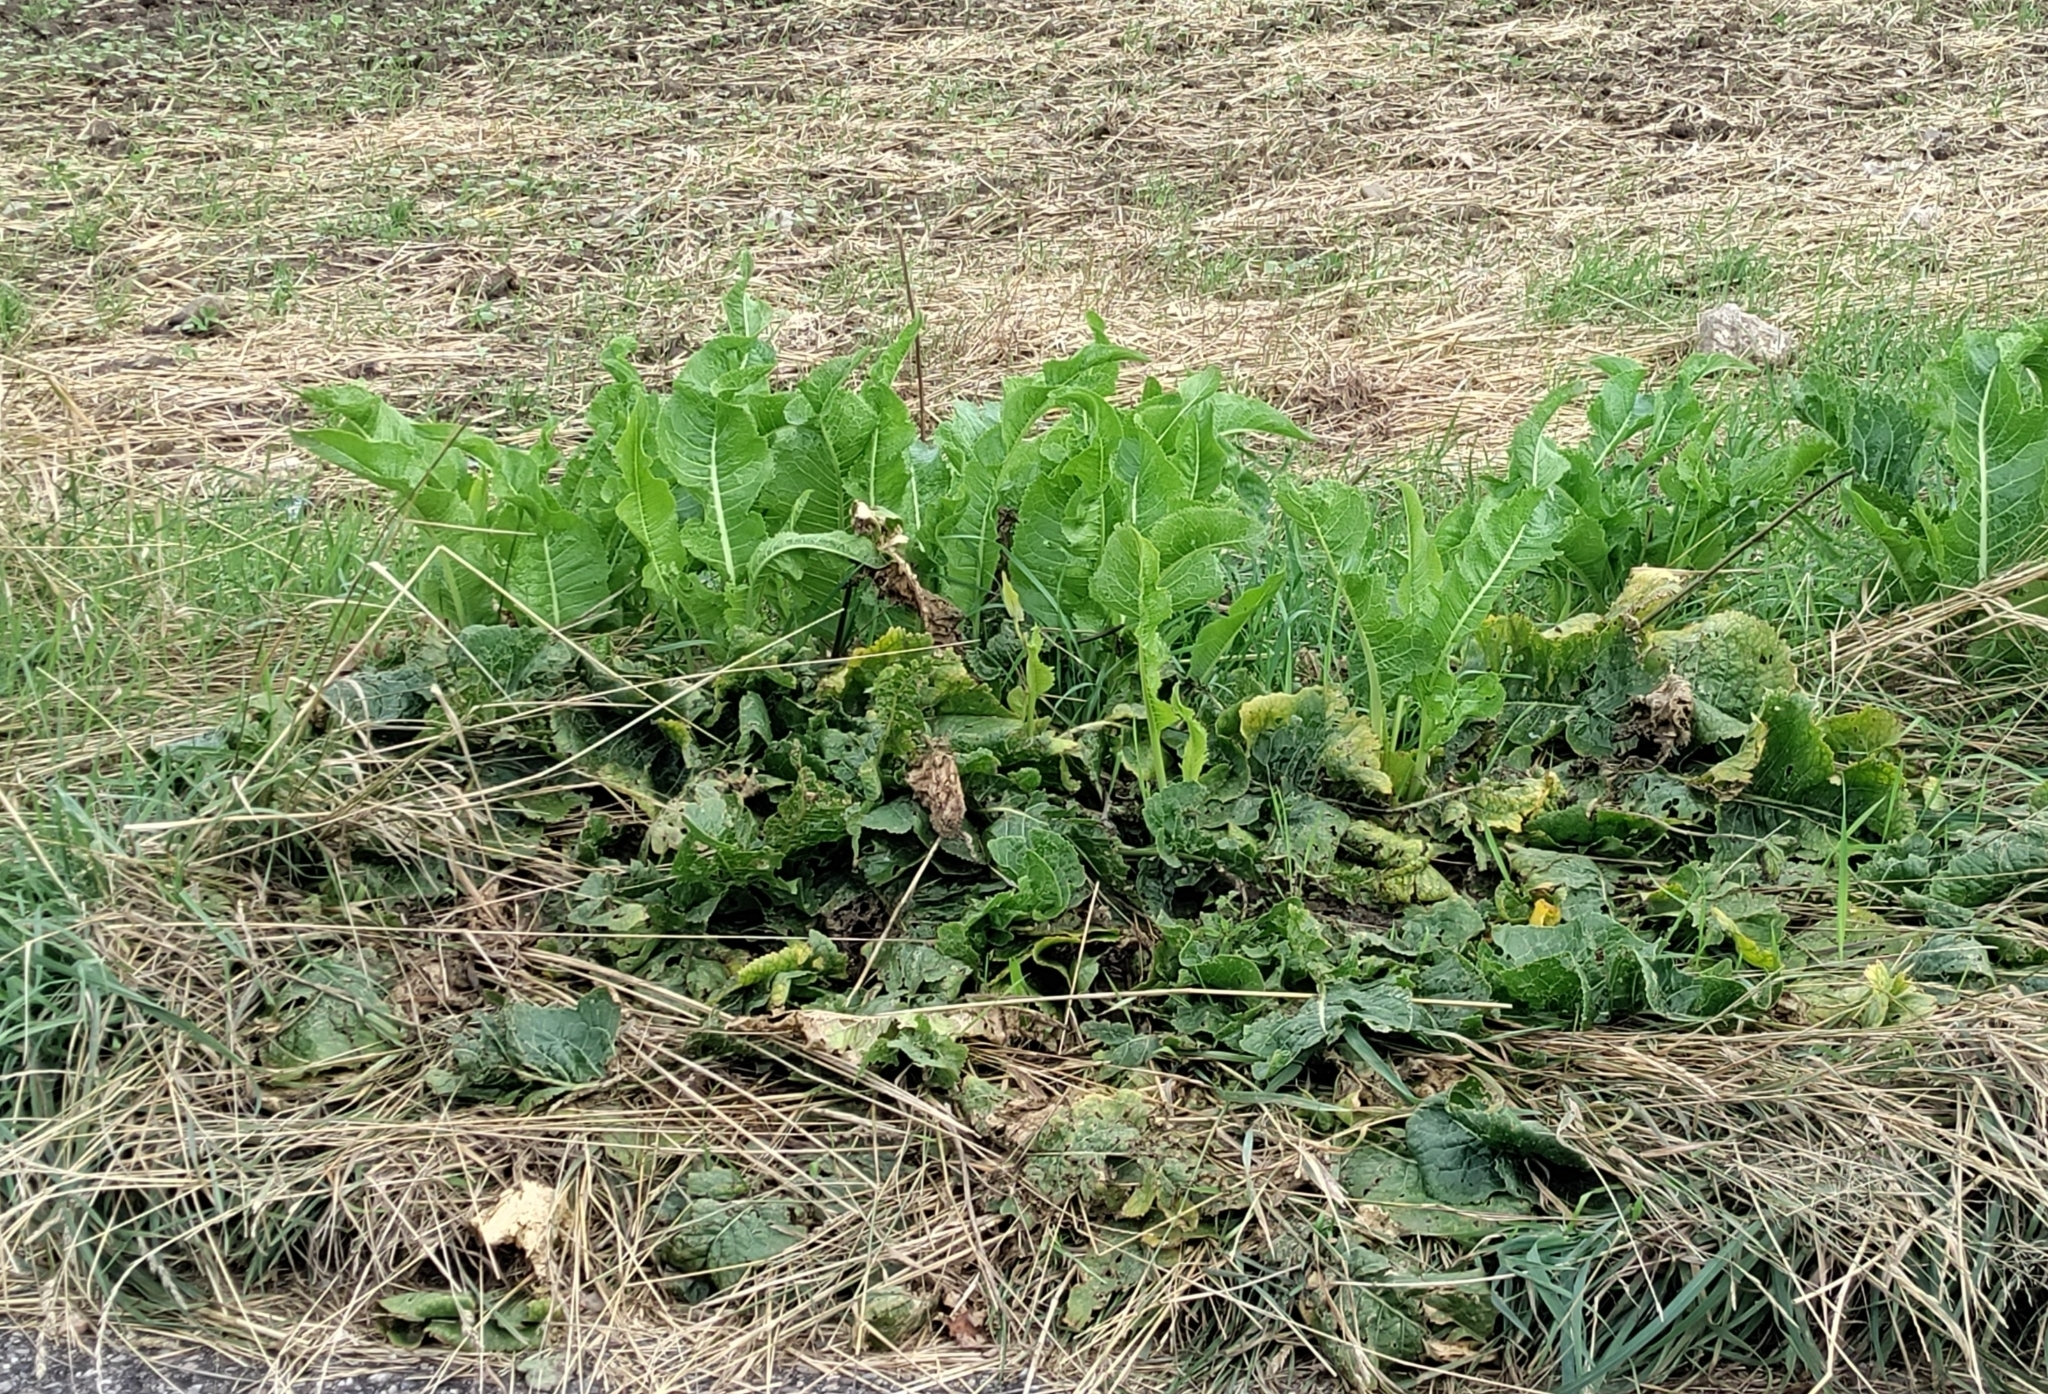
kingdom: Plantae
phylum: Tracheophyta
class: Magnoliopsida
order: Brassicales
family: Brassicaceae
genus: Armoracia
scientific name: Armoracia rusticana
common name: Horseradish
